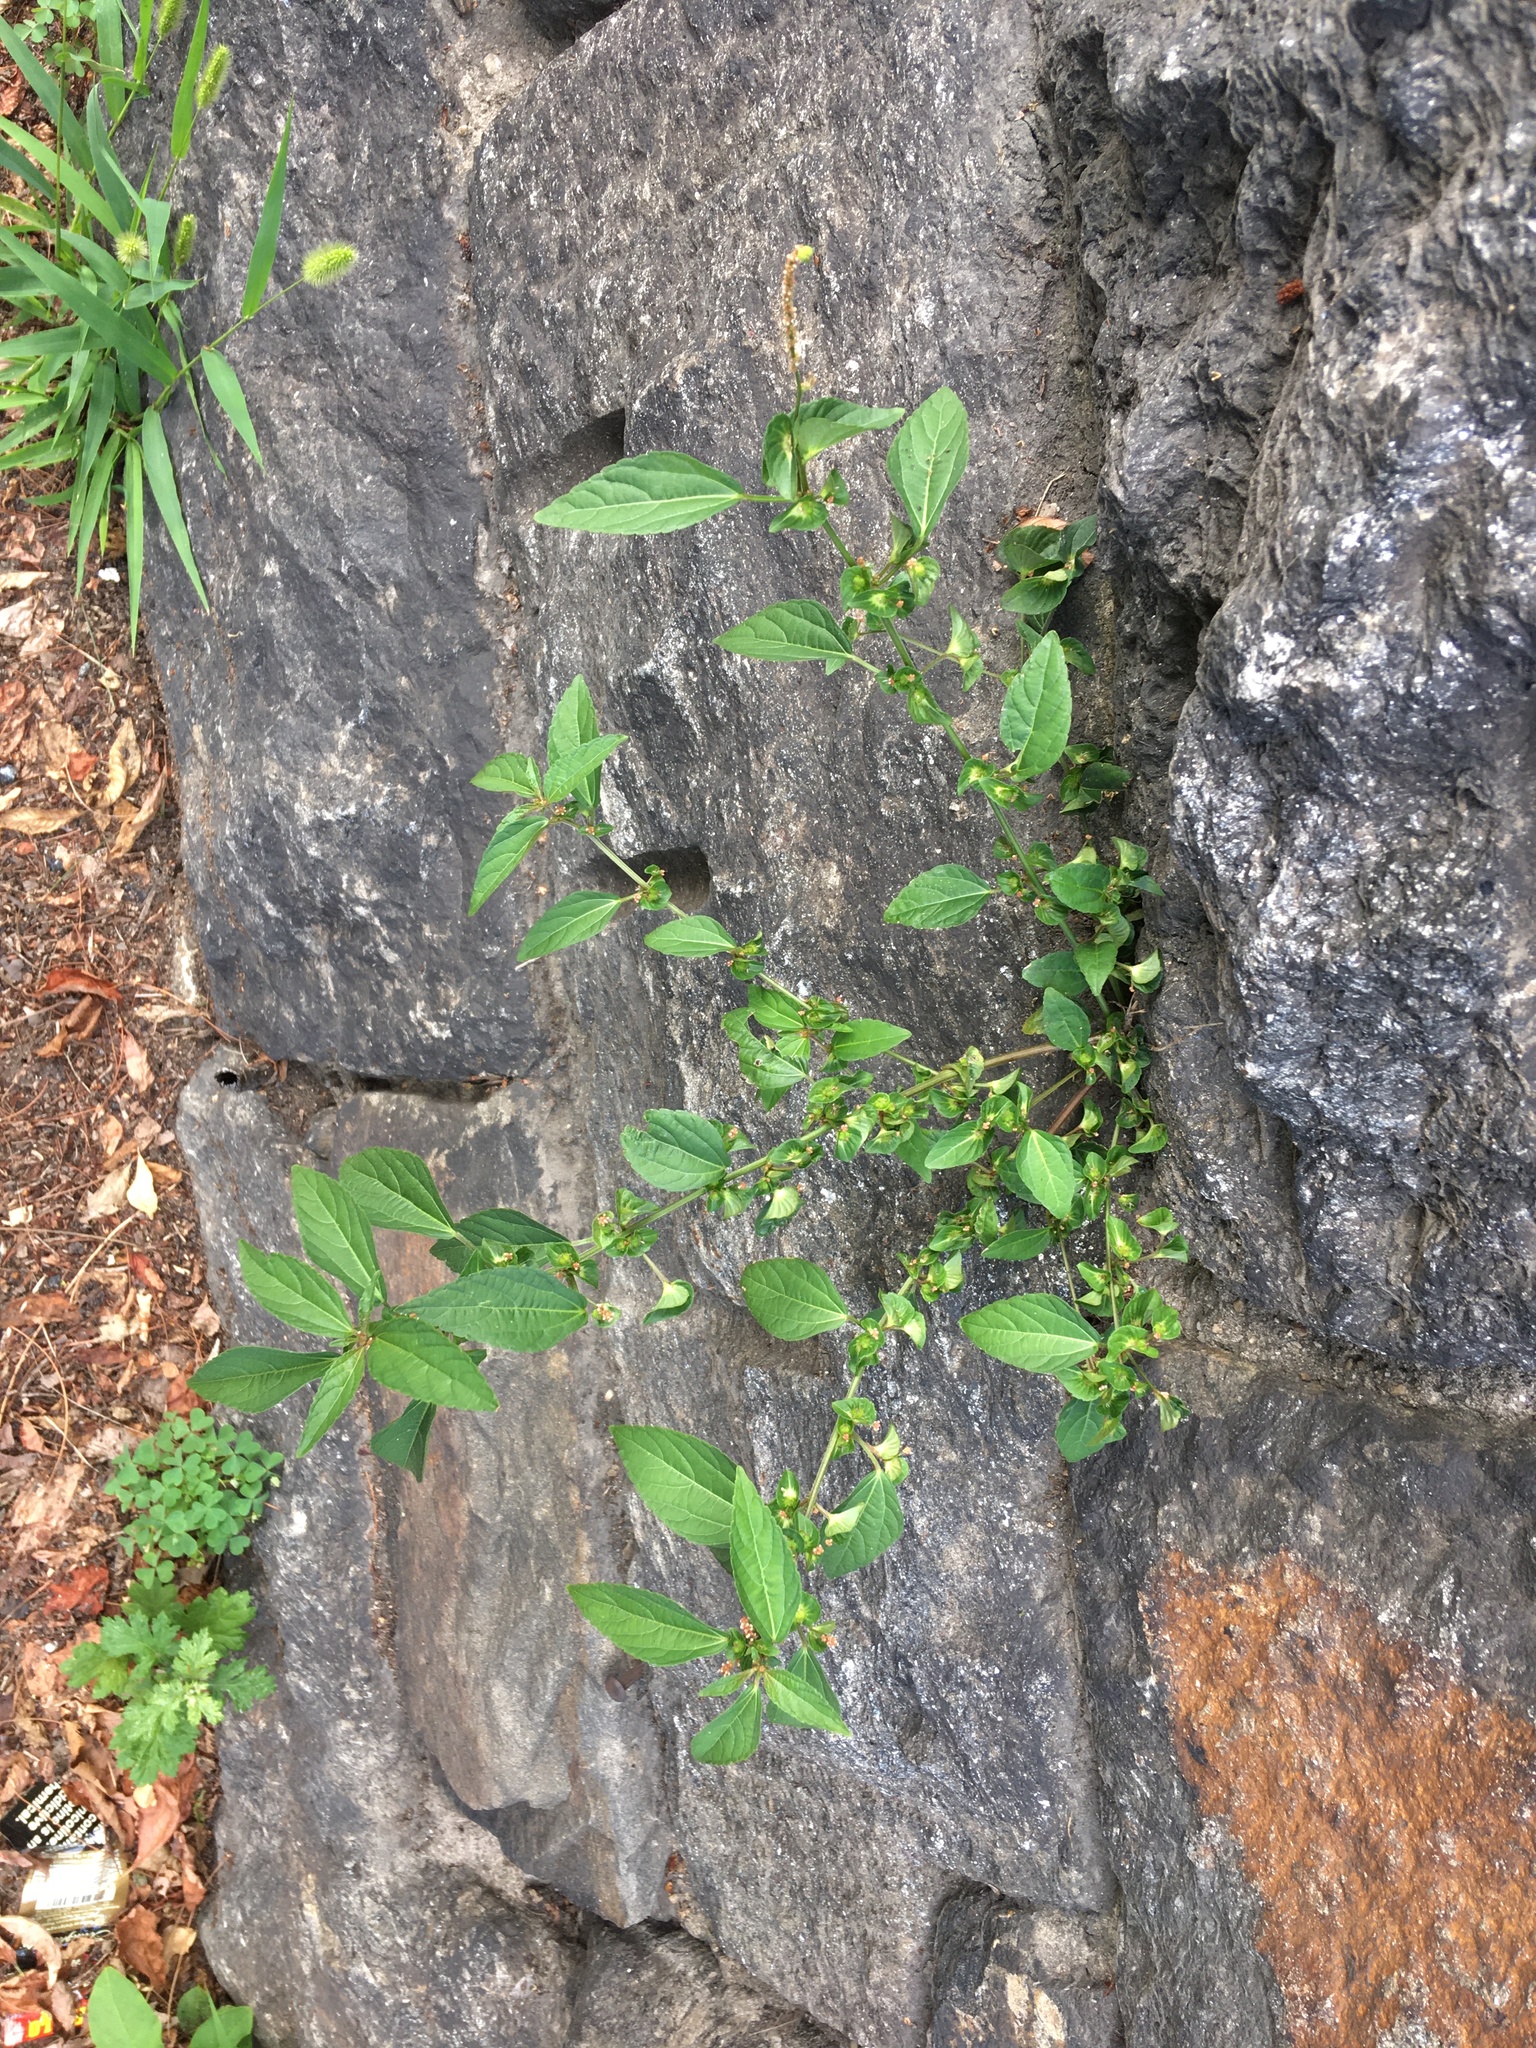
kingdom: Plantae
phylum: Tracheophyta
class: Magnoliopsida
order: Malpighiales
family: Euphorbiaceae
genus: Acalypha
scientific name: Acalypha australis
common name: Asian copperleaf
